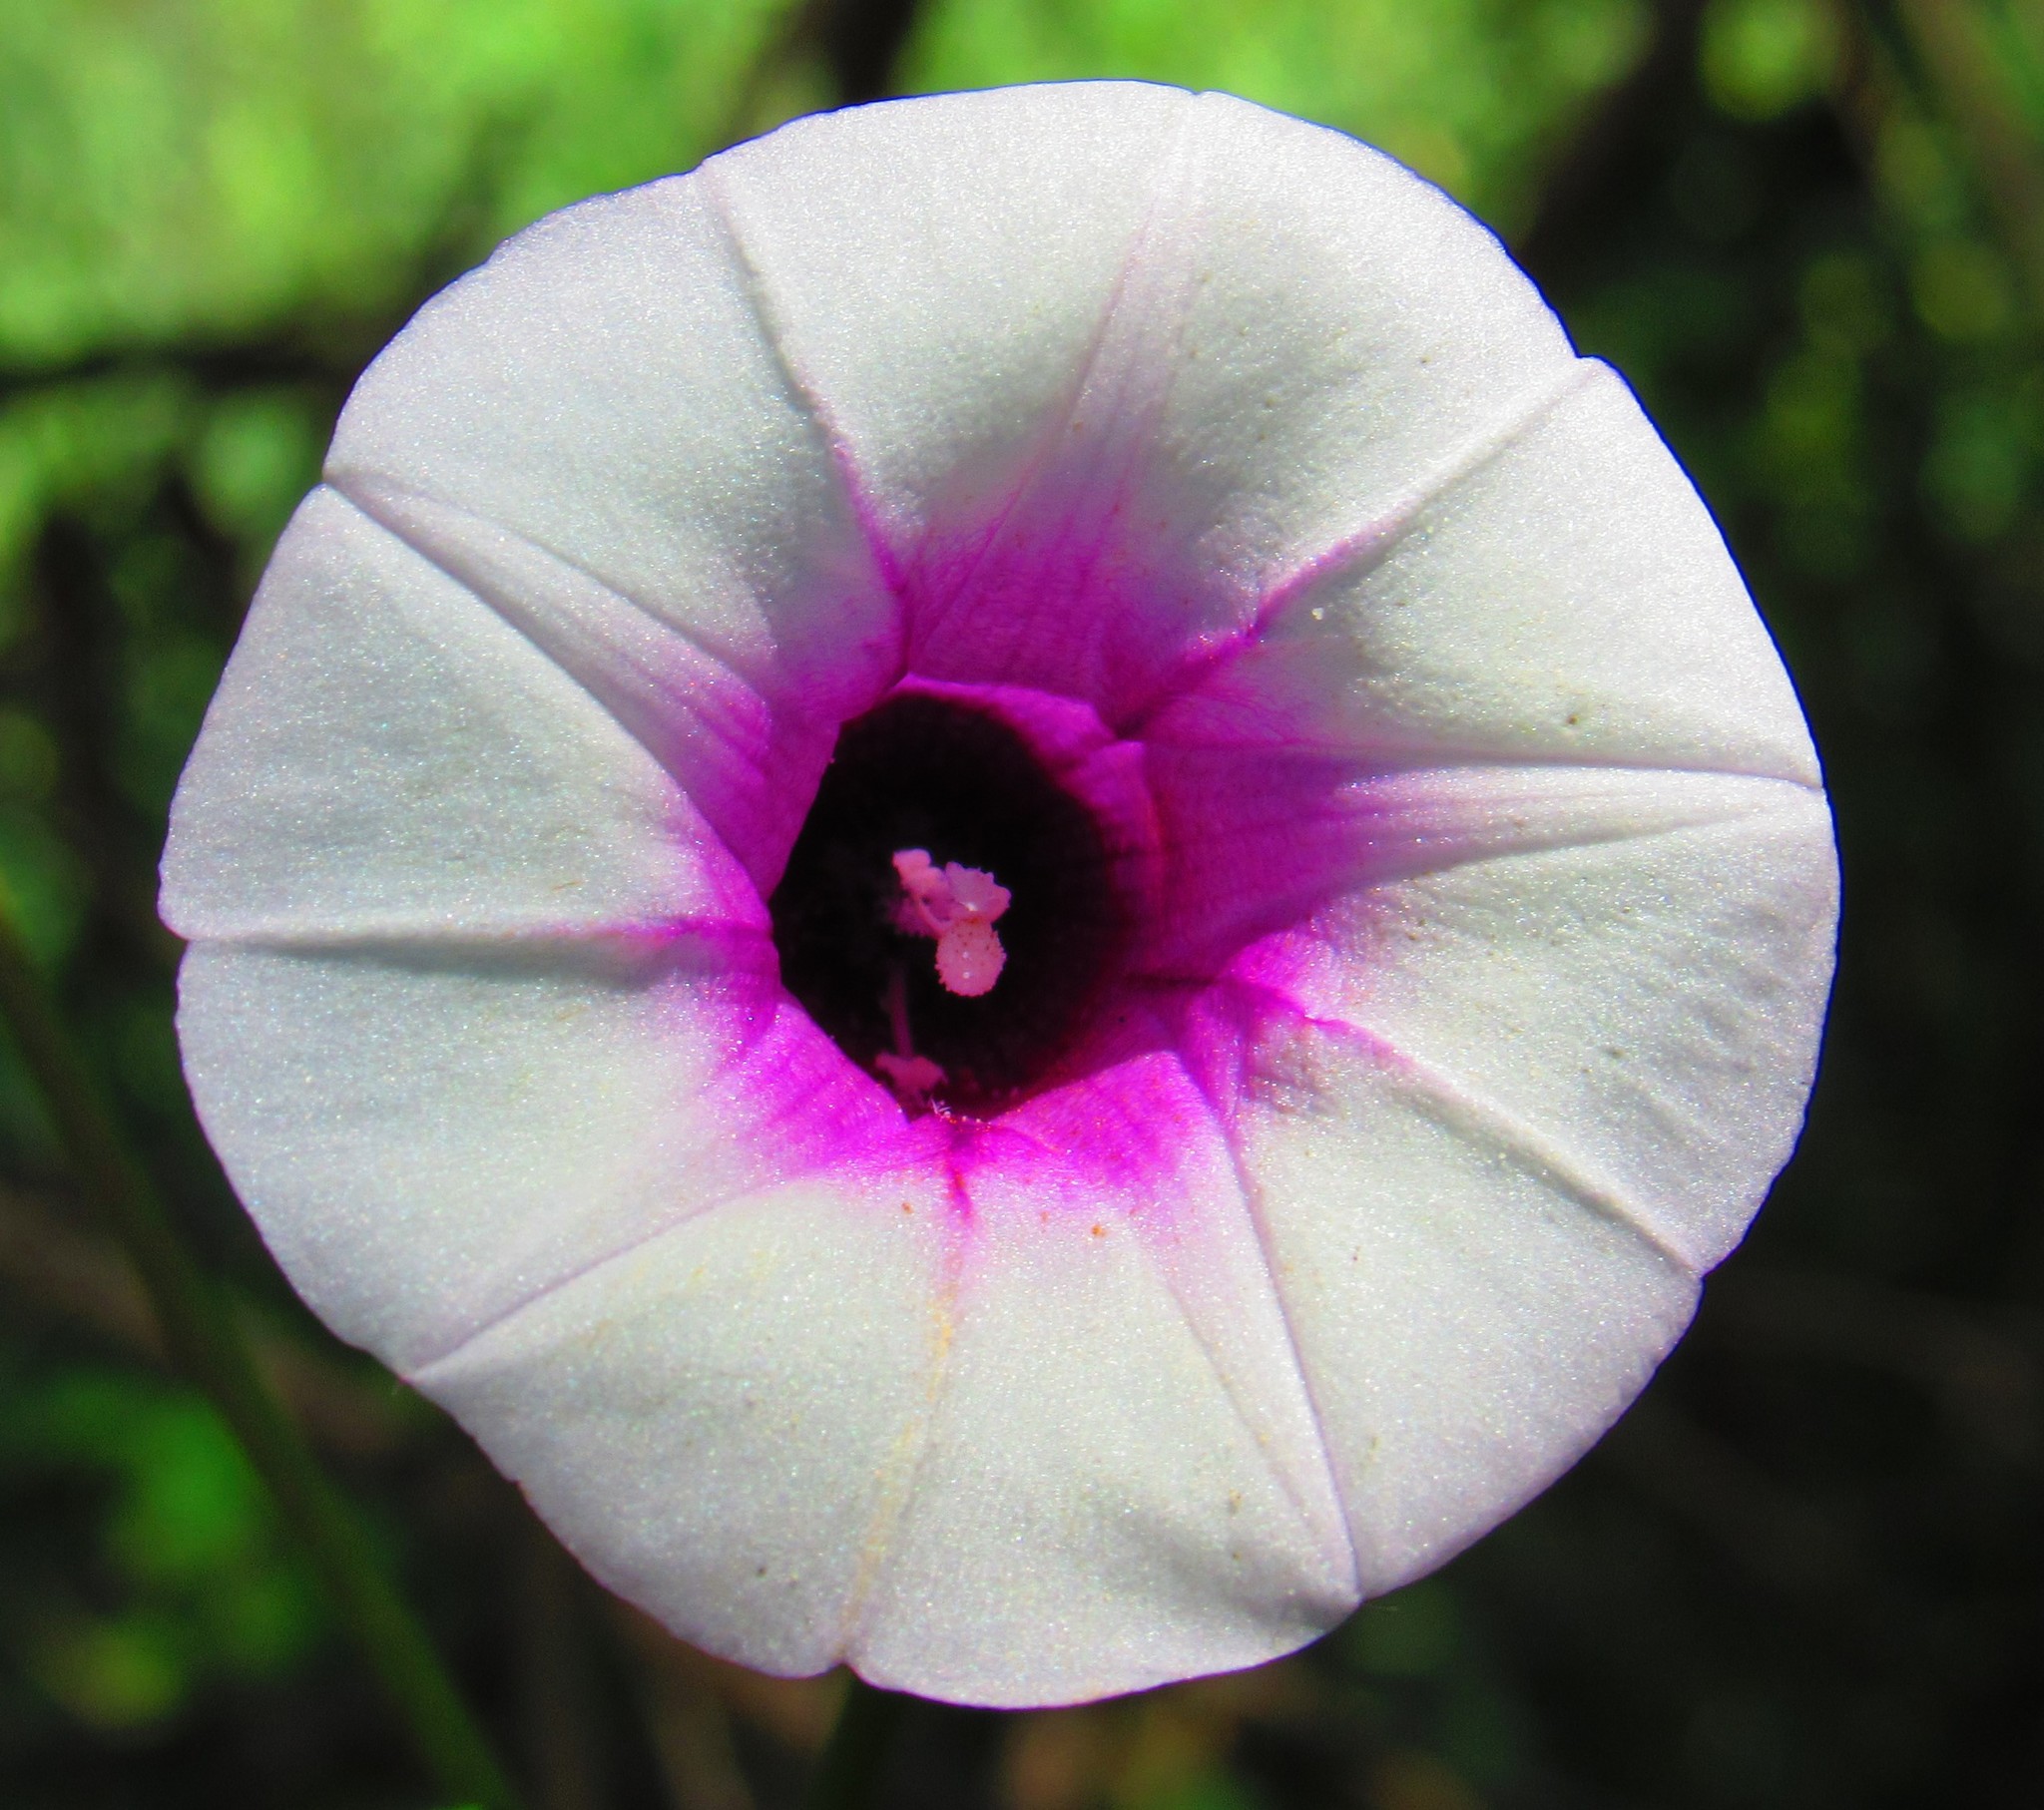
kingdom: Plantae
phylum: Tracheophyta
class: Magnoliopsida
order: Solanales
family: Convolvulaceae
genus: Ipomoea
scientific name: Ipomoea batatas
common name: Sweet-potato
